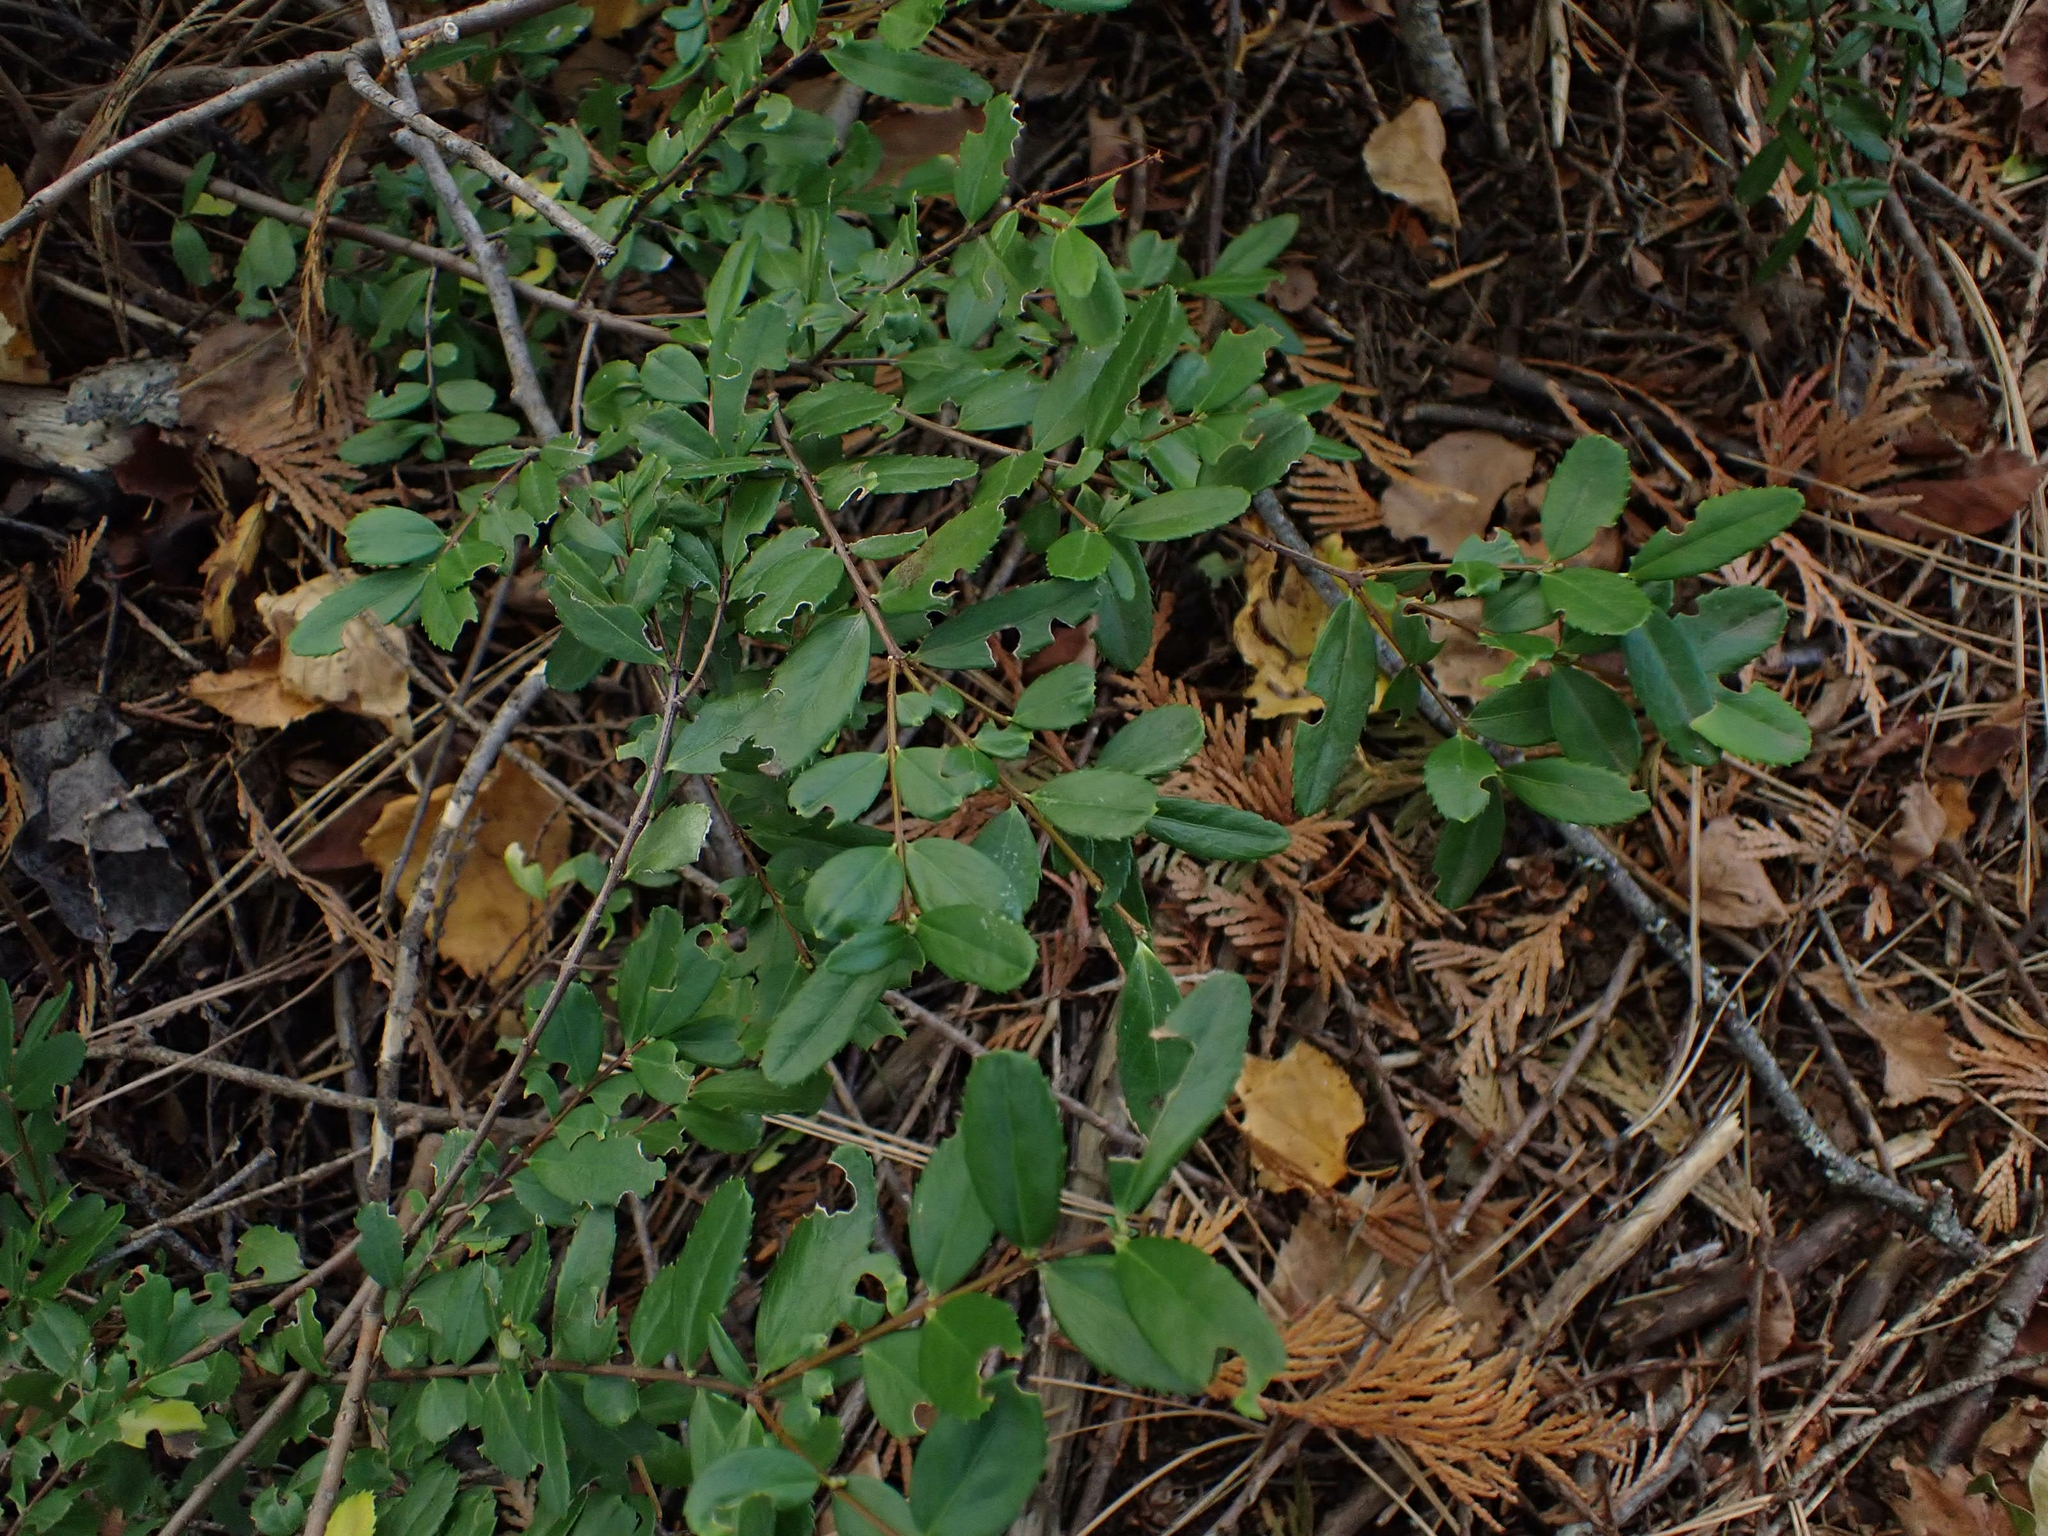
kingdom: Plantae
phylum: Tracheophyta
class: Magnoliopsida
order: Celastrales
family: Celastraceae
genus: Paxistima
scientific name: Paxistima myrsinites
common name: Mountain-lover
